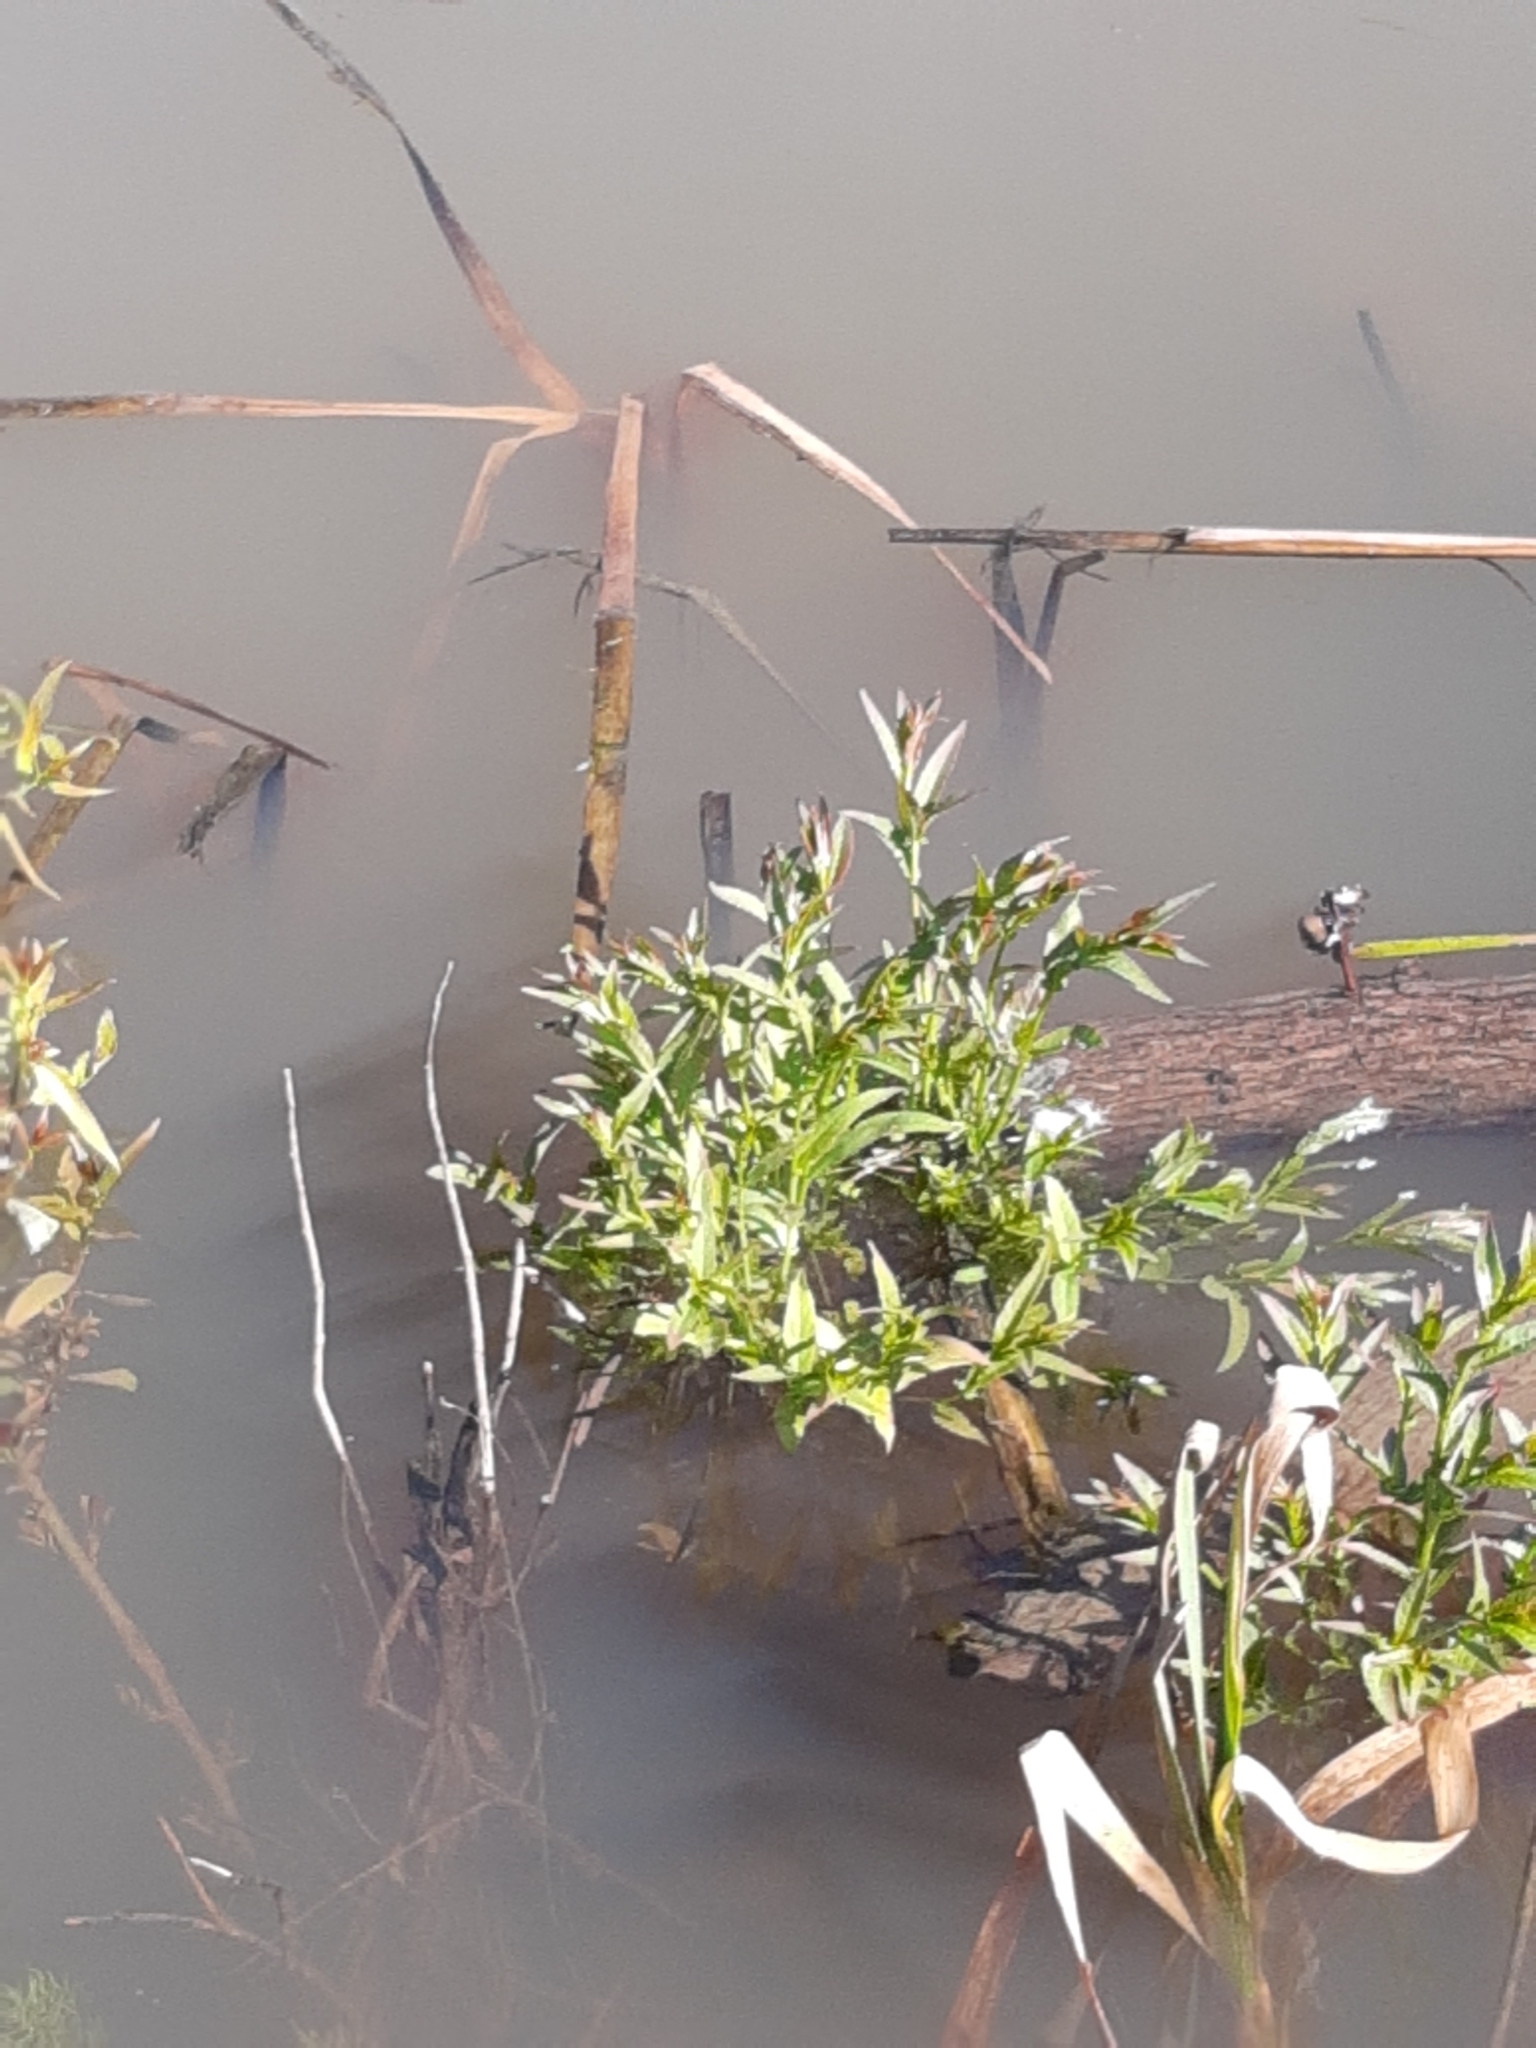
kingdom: Plantae
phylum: Tracheophyta
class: Magnoliopsida
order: Malpighiales
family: Salicaceae
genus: Salix
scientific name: Salix
